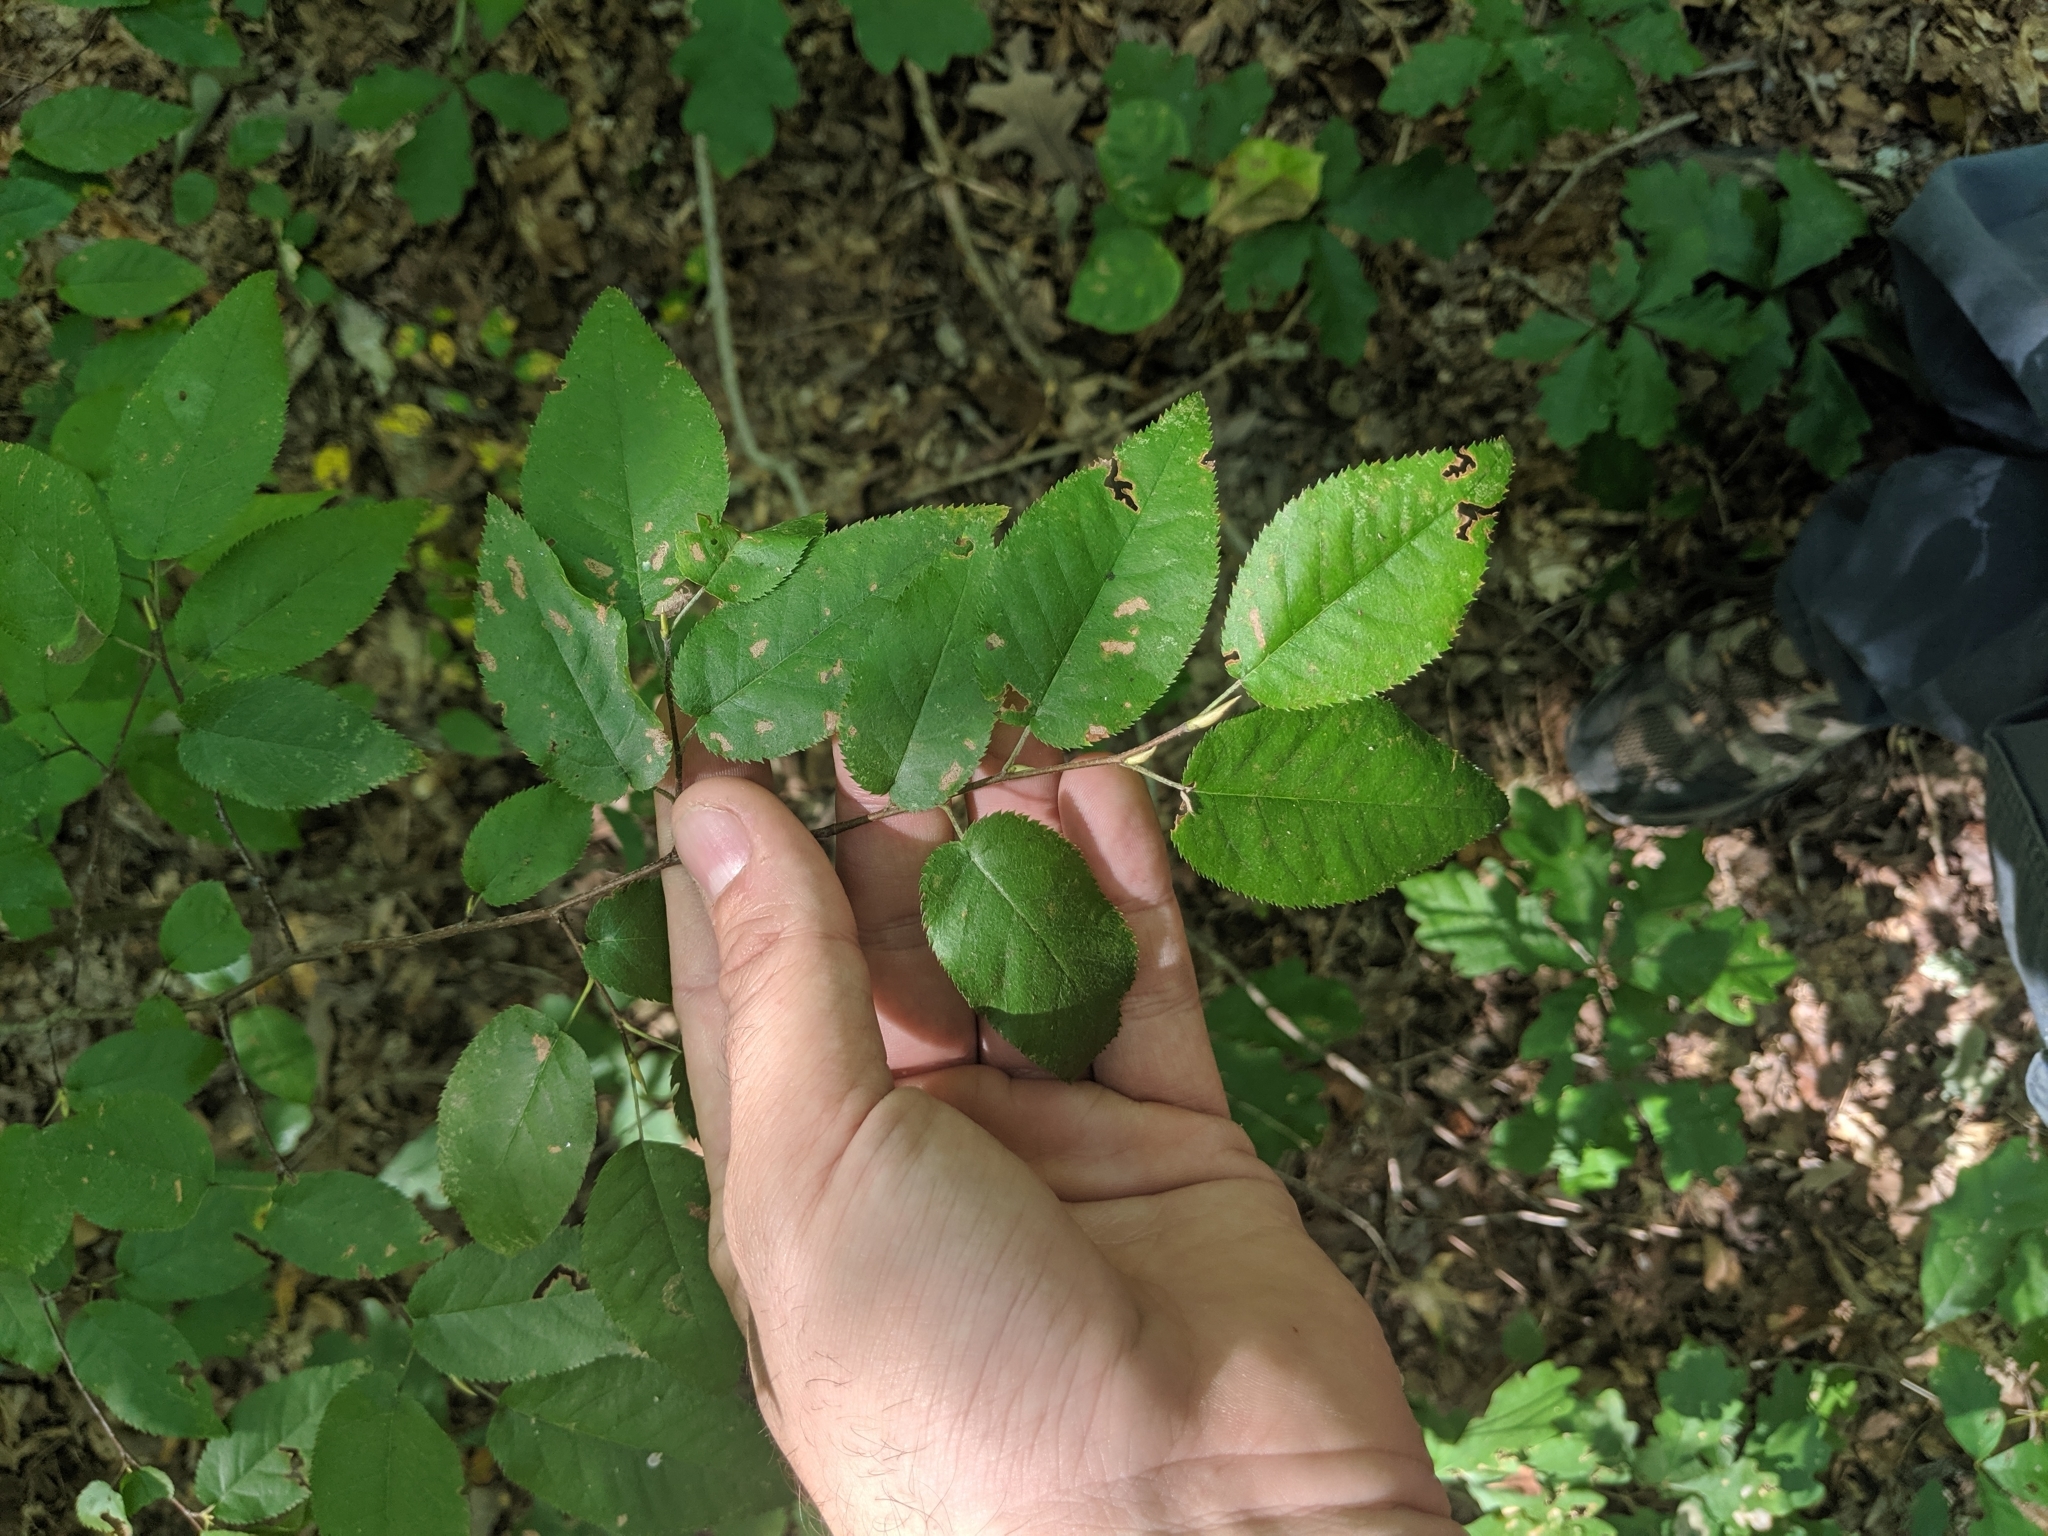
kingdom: Plantae
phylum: Tracheophyta
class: Magnoliopsida
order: Rosales
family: Rosaceae
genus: Amelanchier
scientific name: Amelanchier arborea
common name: Downy serviceberry
